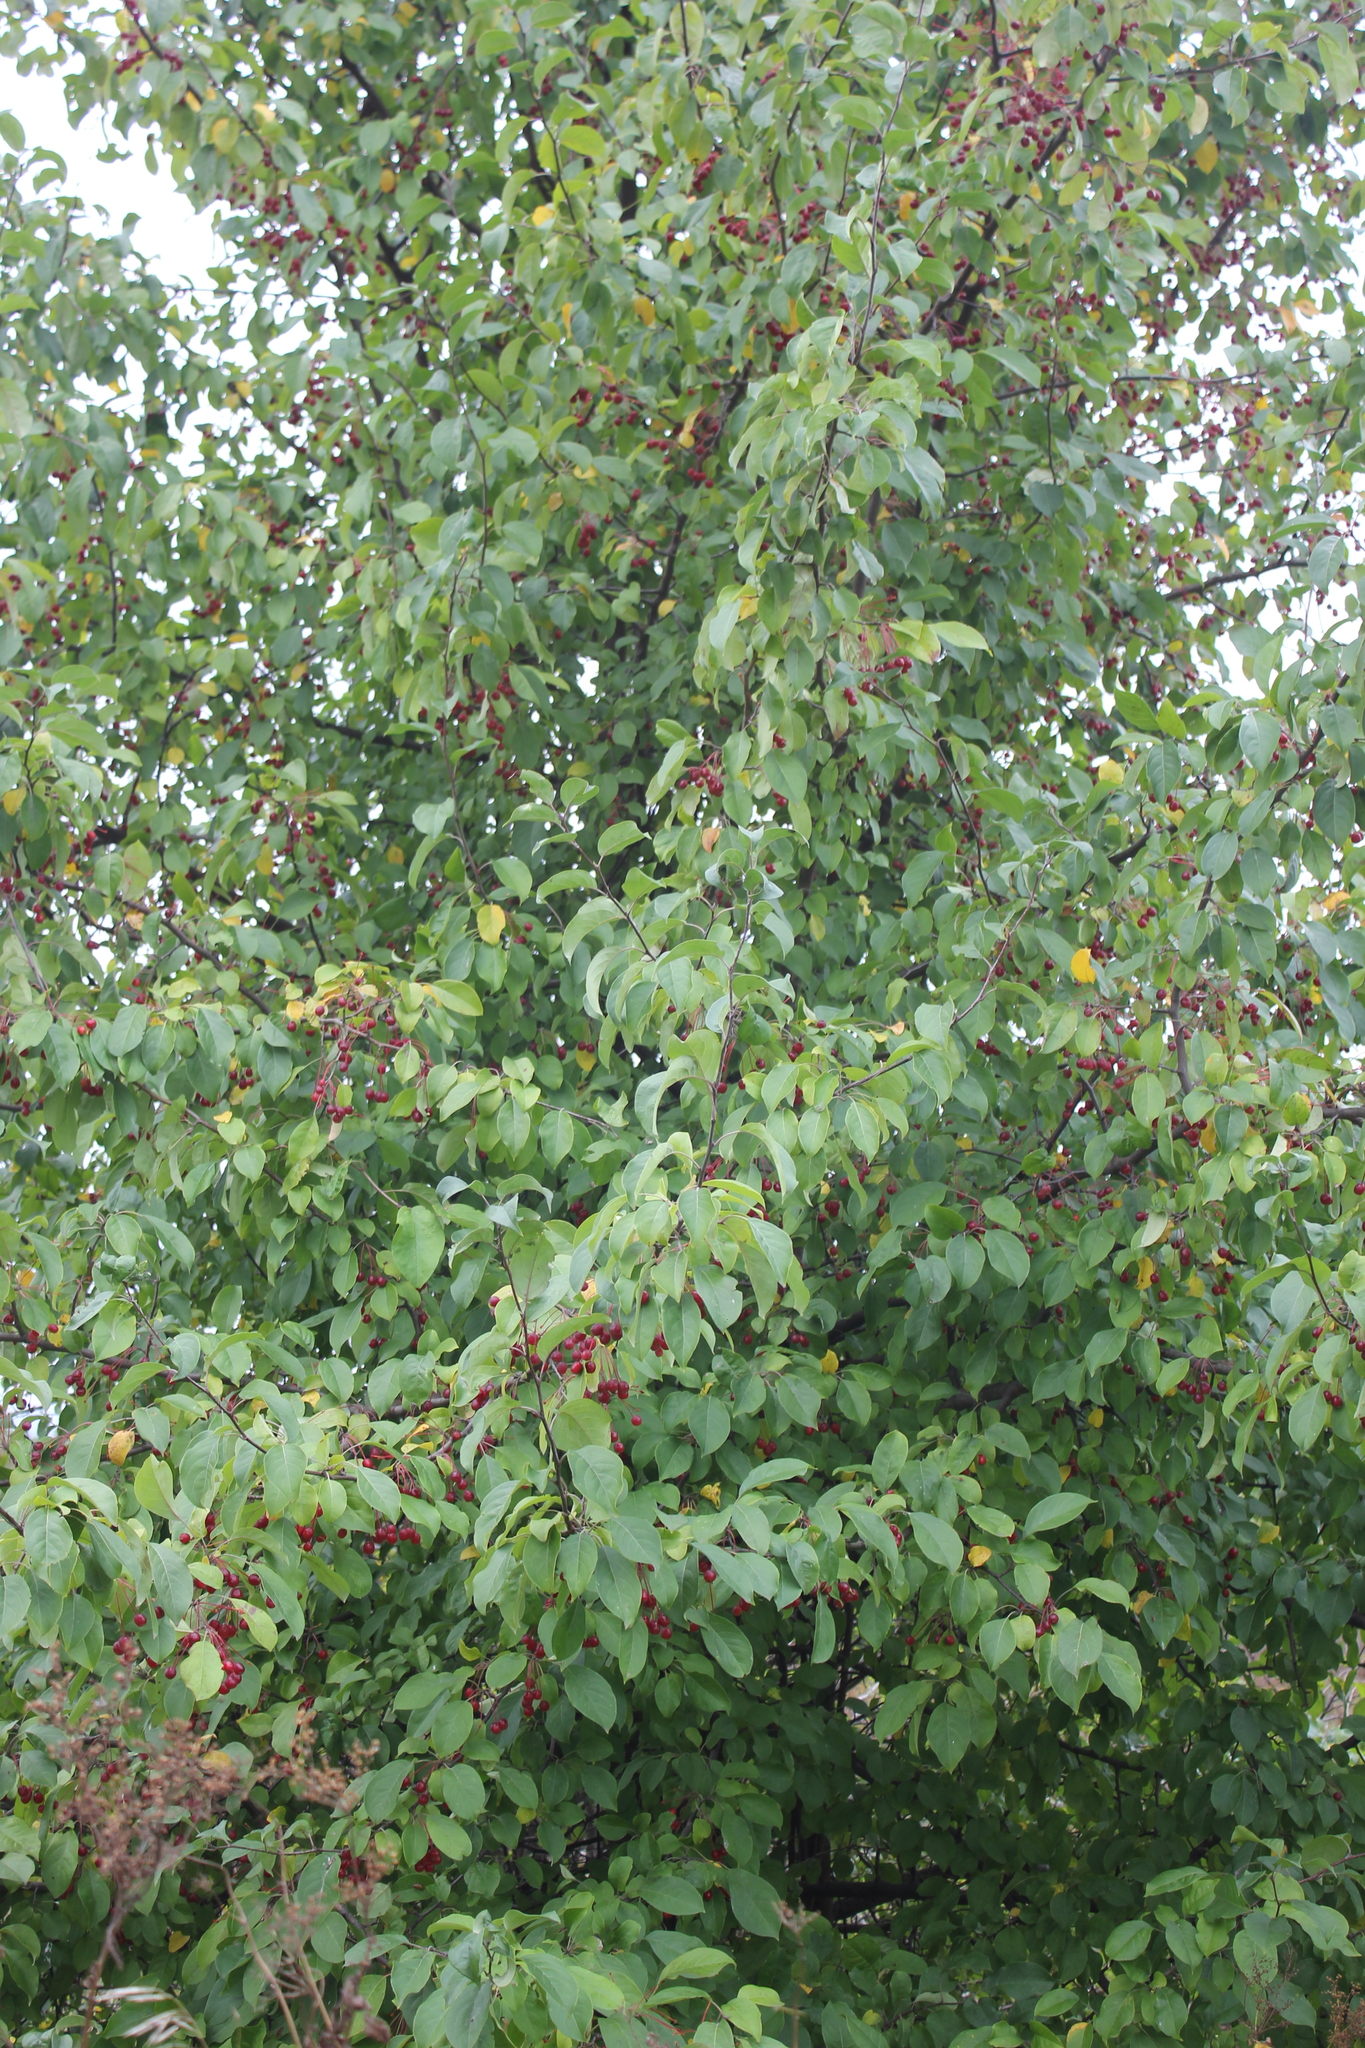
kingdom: Plantae
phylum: Tracheophyta
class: Magnoliopsida
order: Rosales
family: Rosaceae
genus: Malus
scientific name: Malus baccata
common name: Siberian crab
